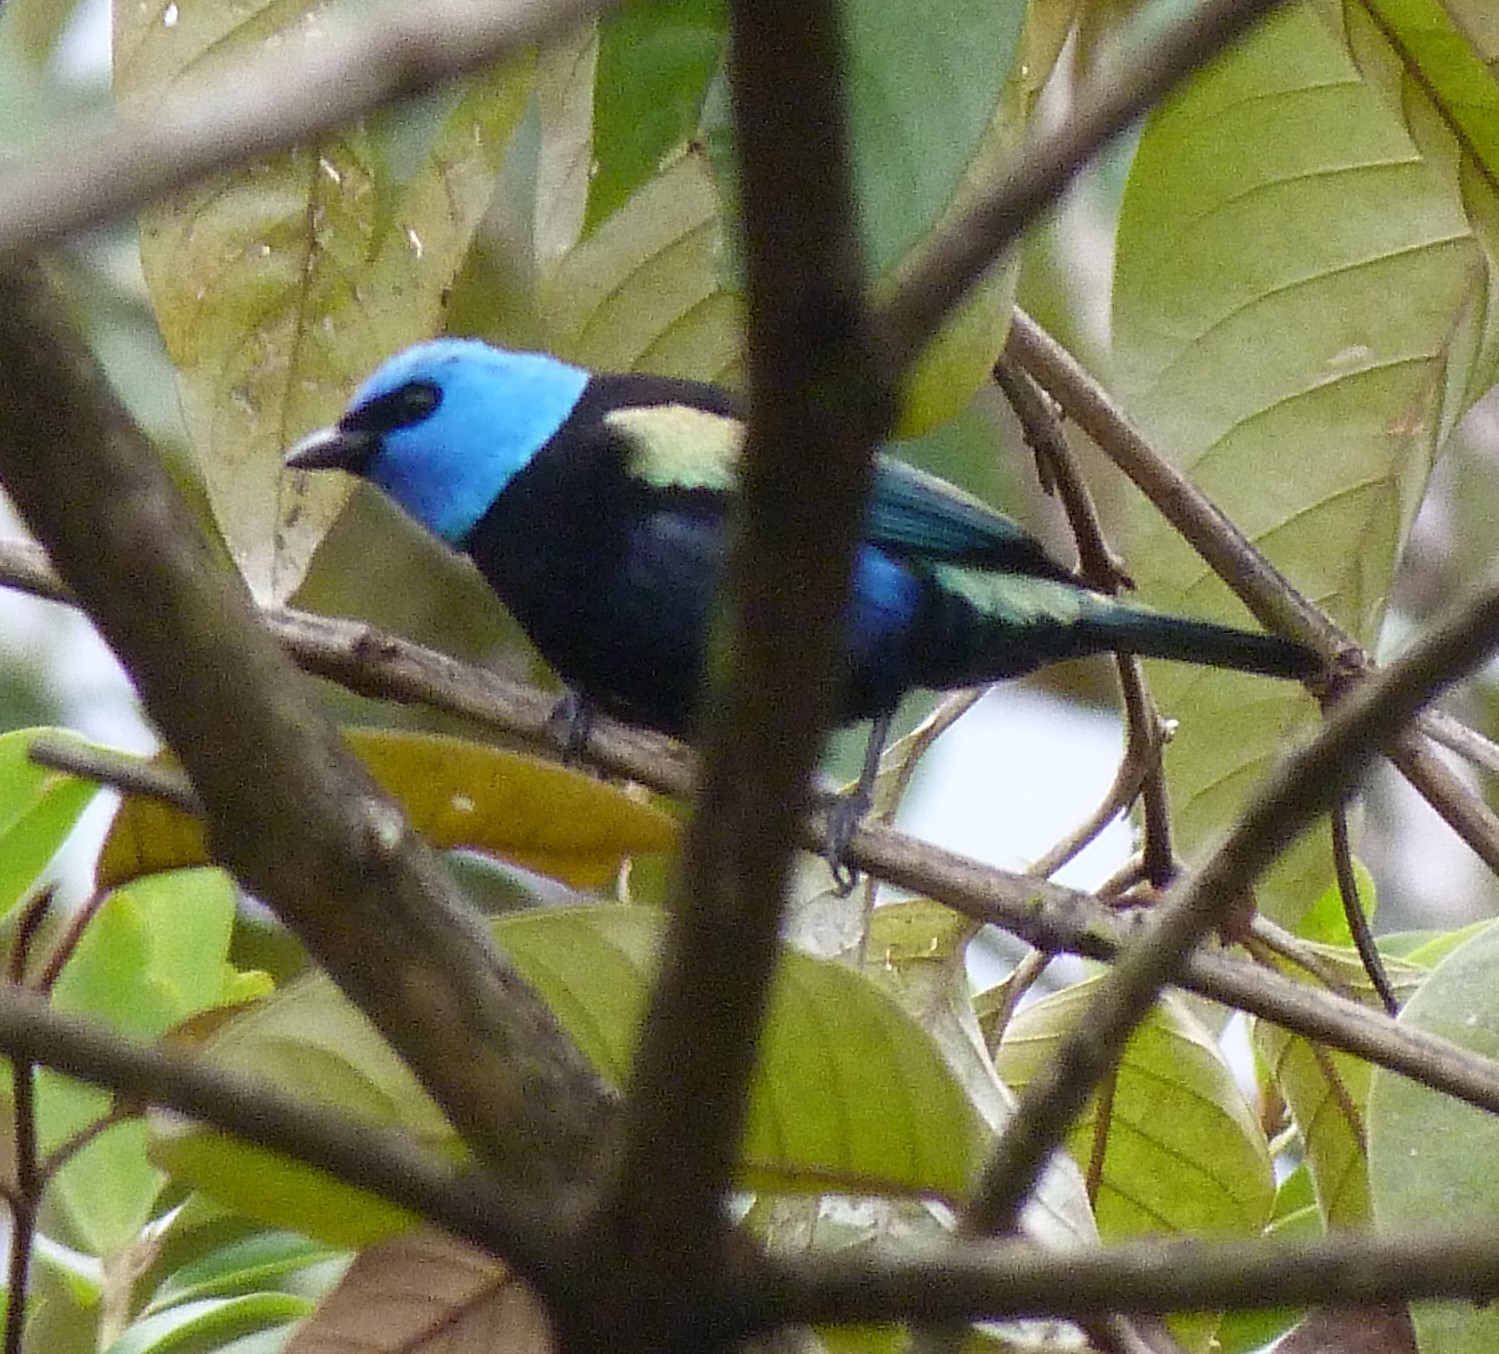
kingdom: Animalia
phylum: Chordata
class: Aves
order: Passeriformes
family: Thraupidae
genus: Stilpnia
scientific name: Stilpnia cyanicollis
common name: Blue-necked tanager
